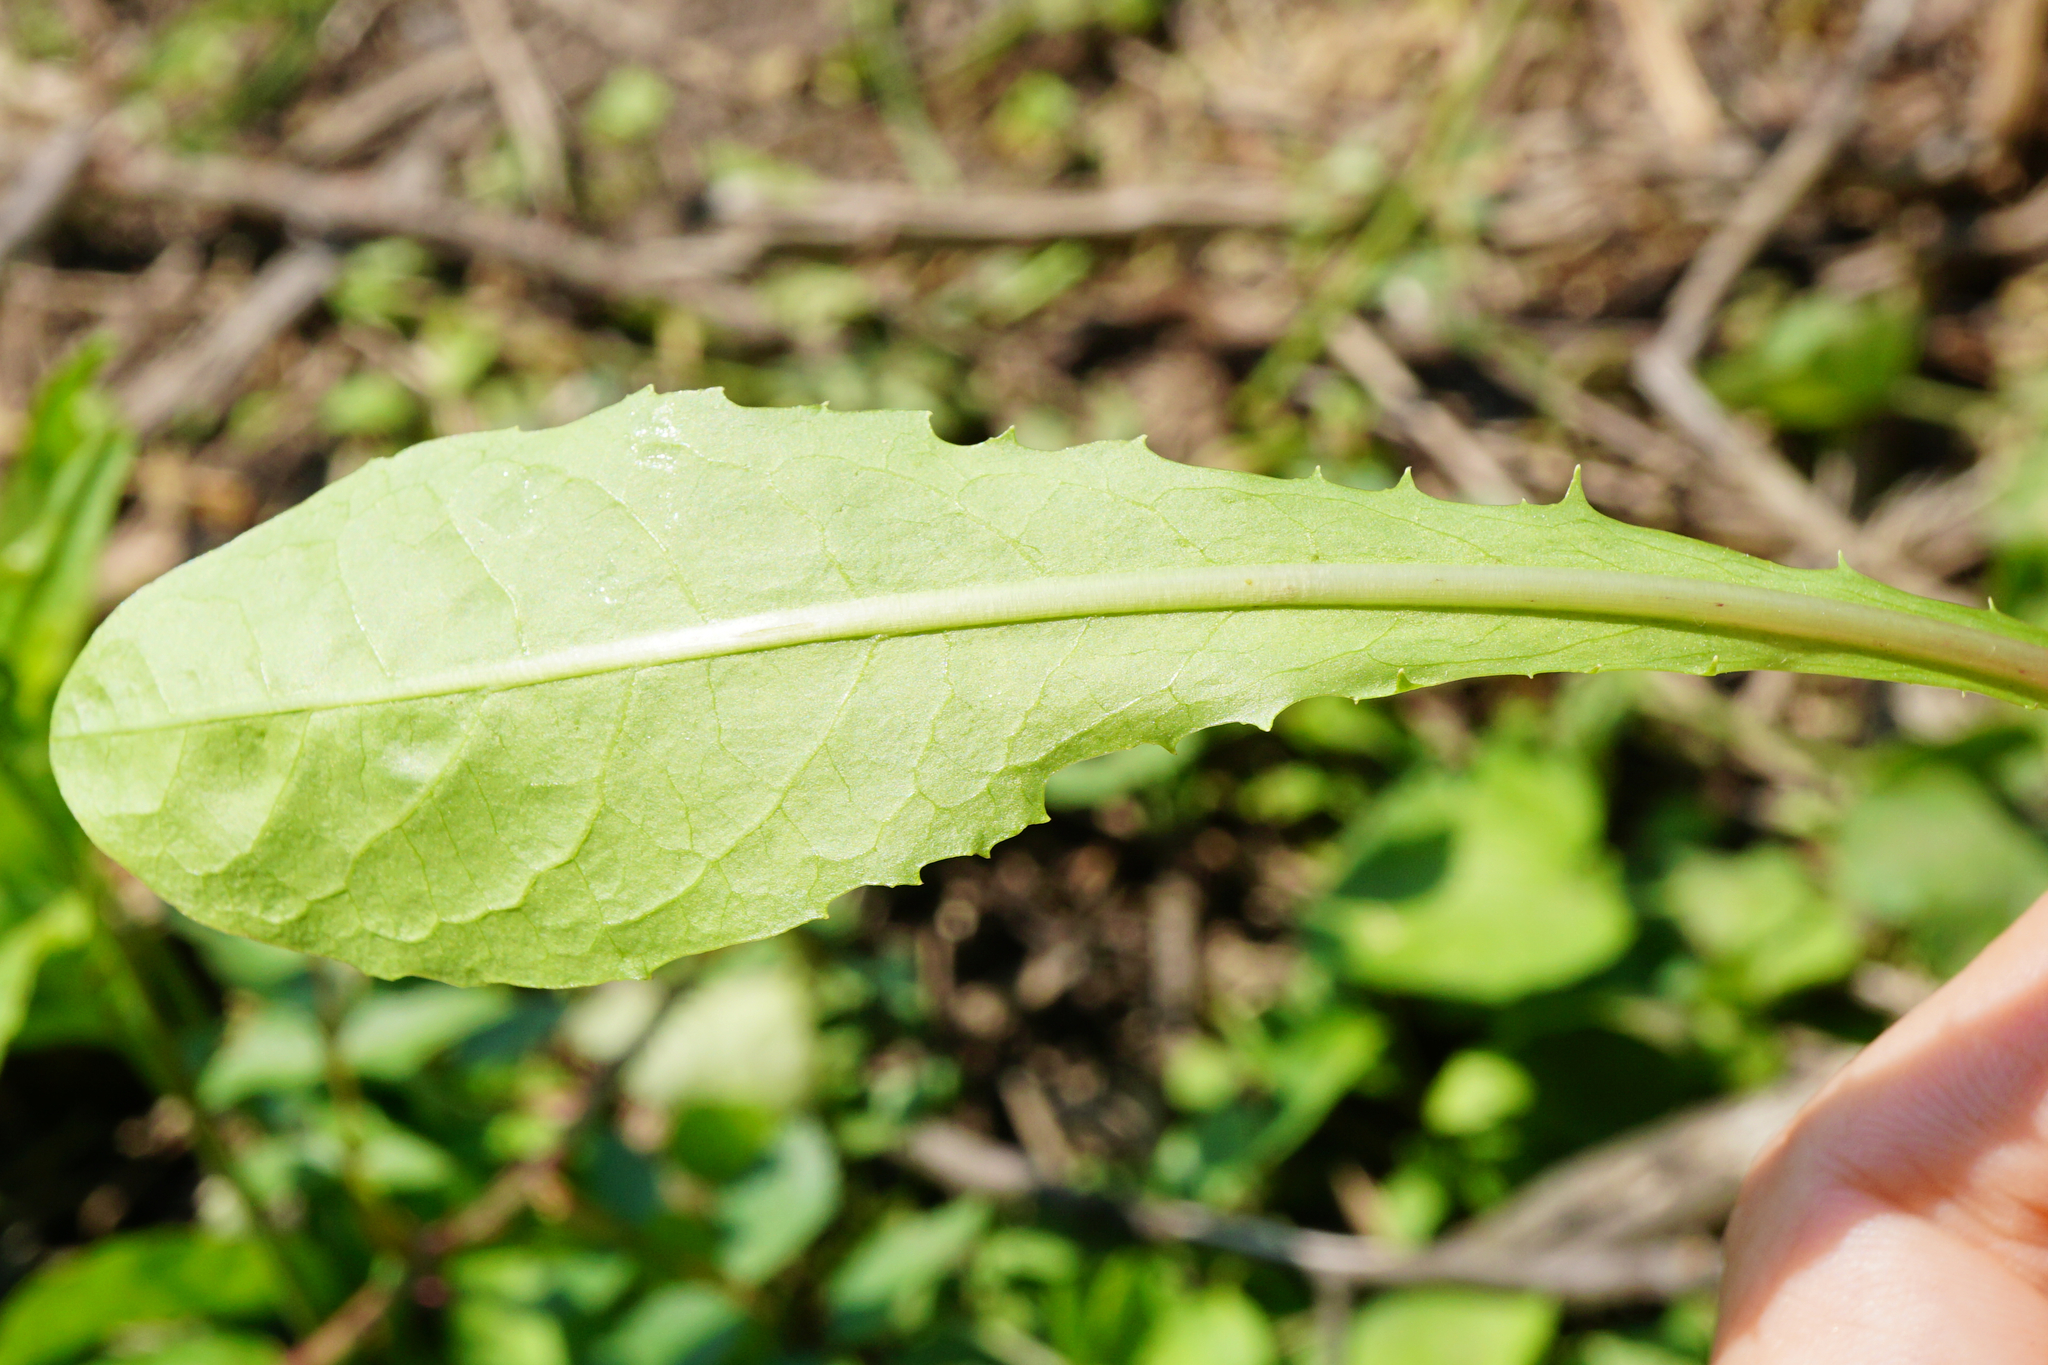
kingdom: Plantae
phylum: Tracheophyta
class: Magnoliopsida
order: Asterales
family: Asteraceae
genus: Taraxacum
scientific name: Taraxacum
